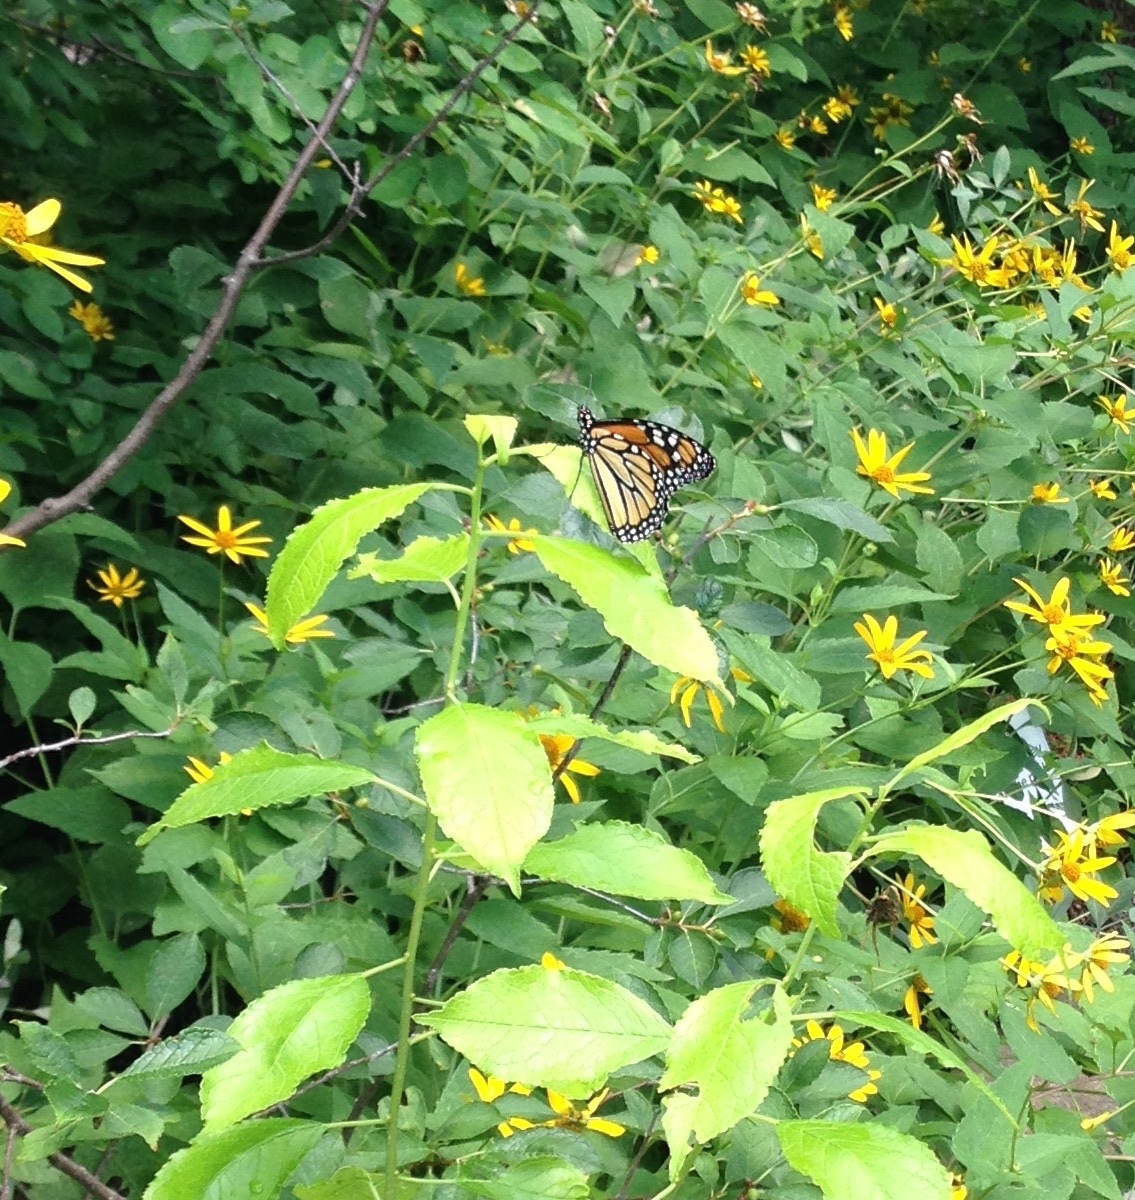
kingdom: Animalia
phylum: Arthropoda
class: Insecta
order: Lepidoptera
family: Nymphalidae
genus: Danaus
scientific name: Danaus plexippus
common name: Monarch
